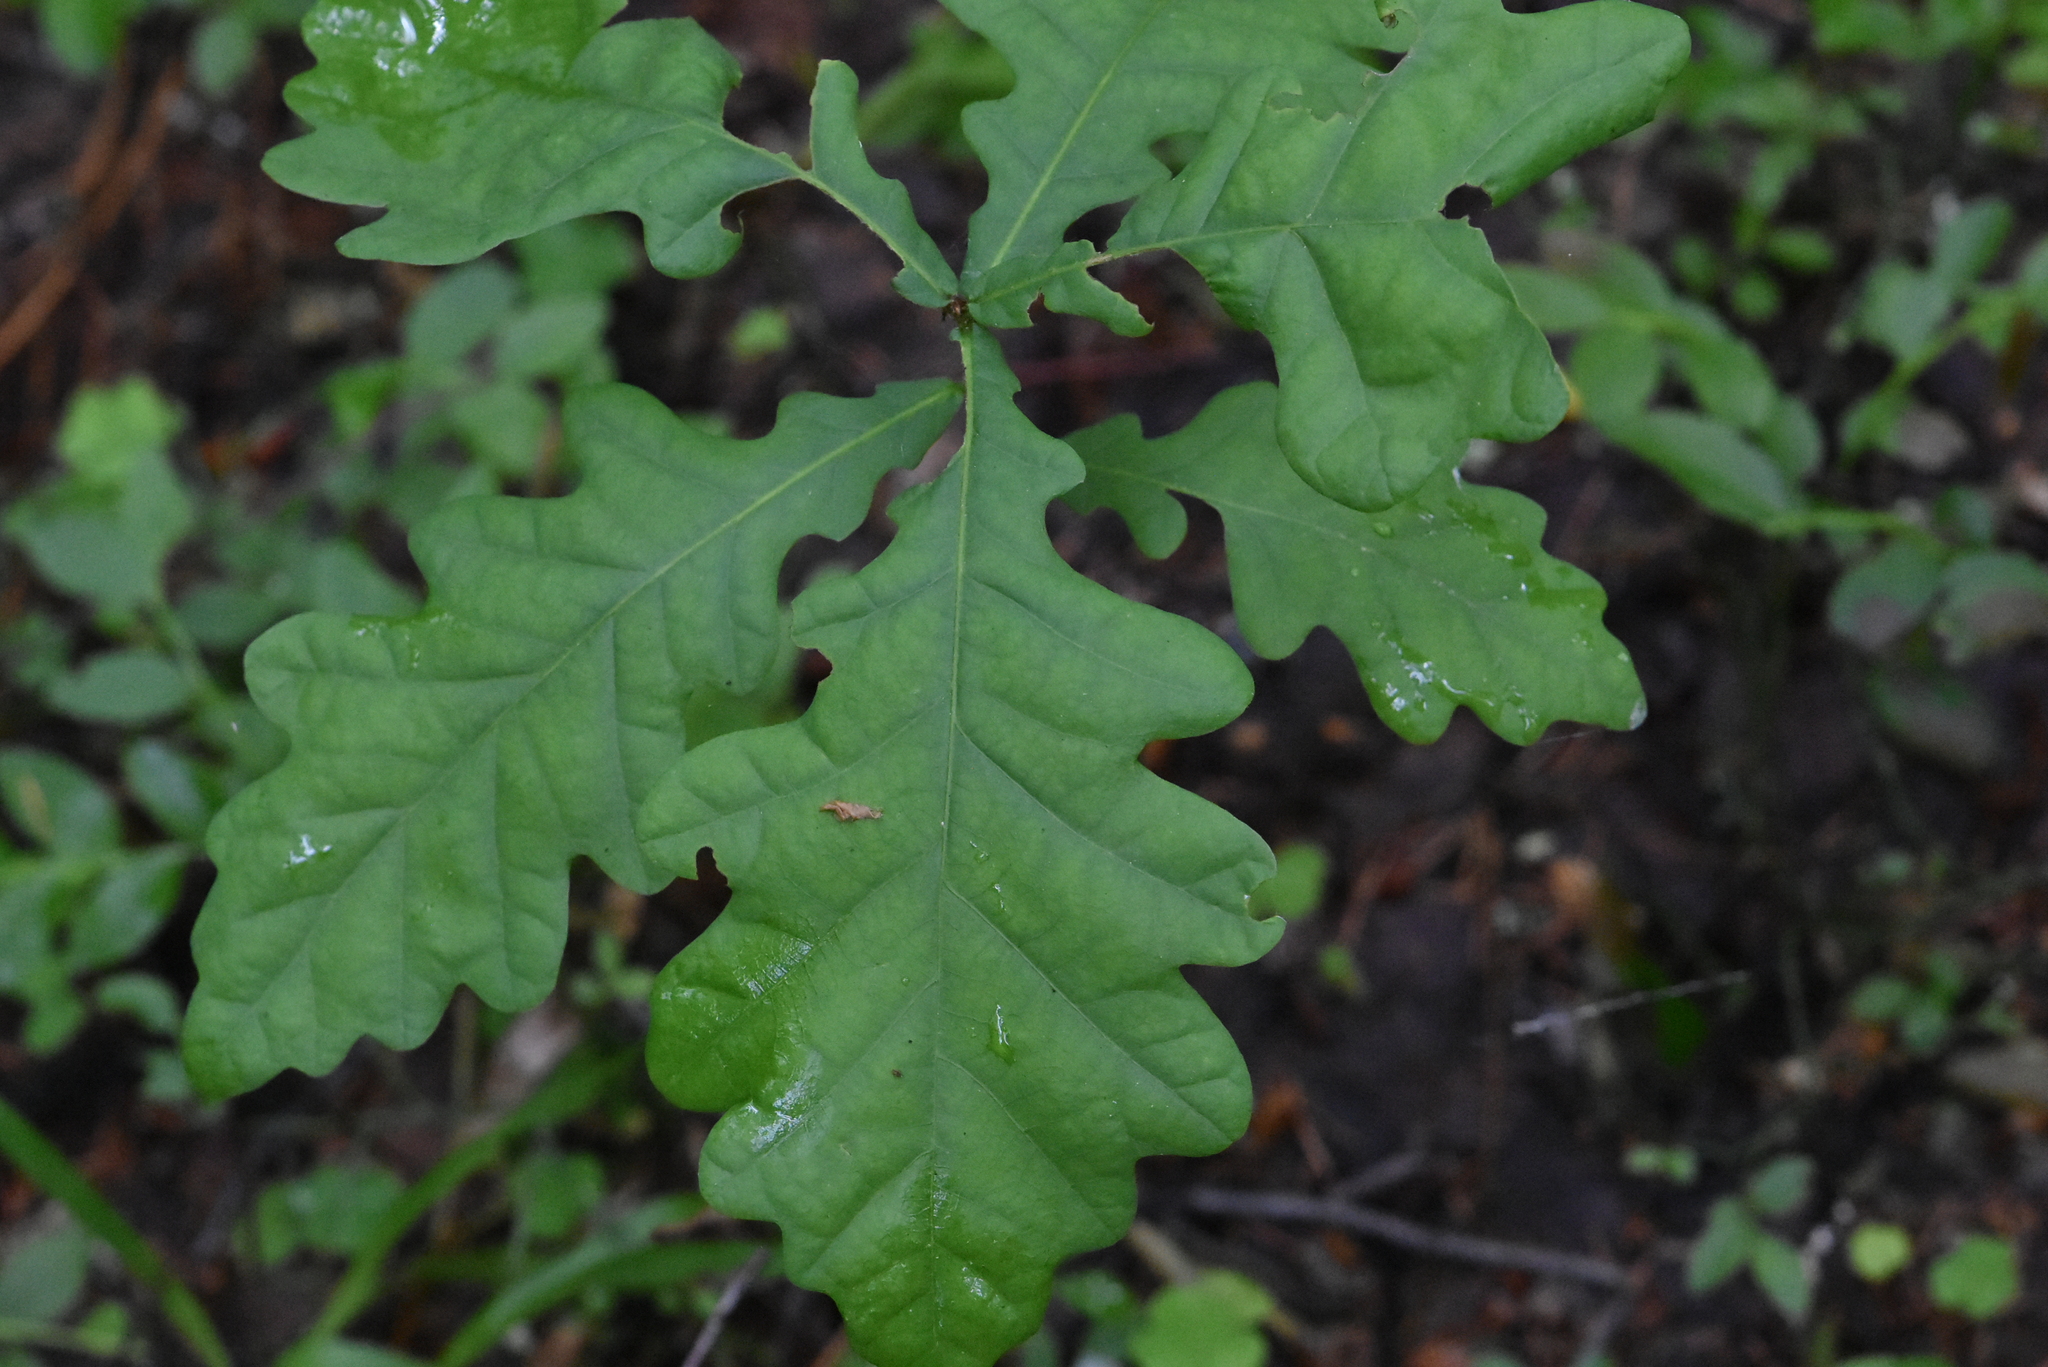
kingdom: Plantae
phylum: Tracheophyta
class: Magnoliopsida
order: Fagales
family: Fagaceae
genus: Quercus
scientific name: Quercus robur
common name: Pedunculate oak
